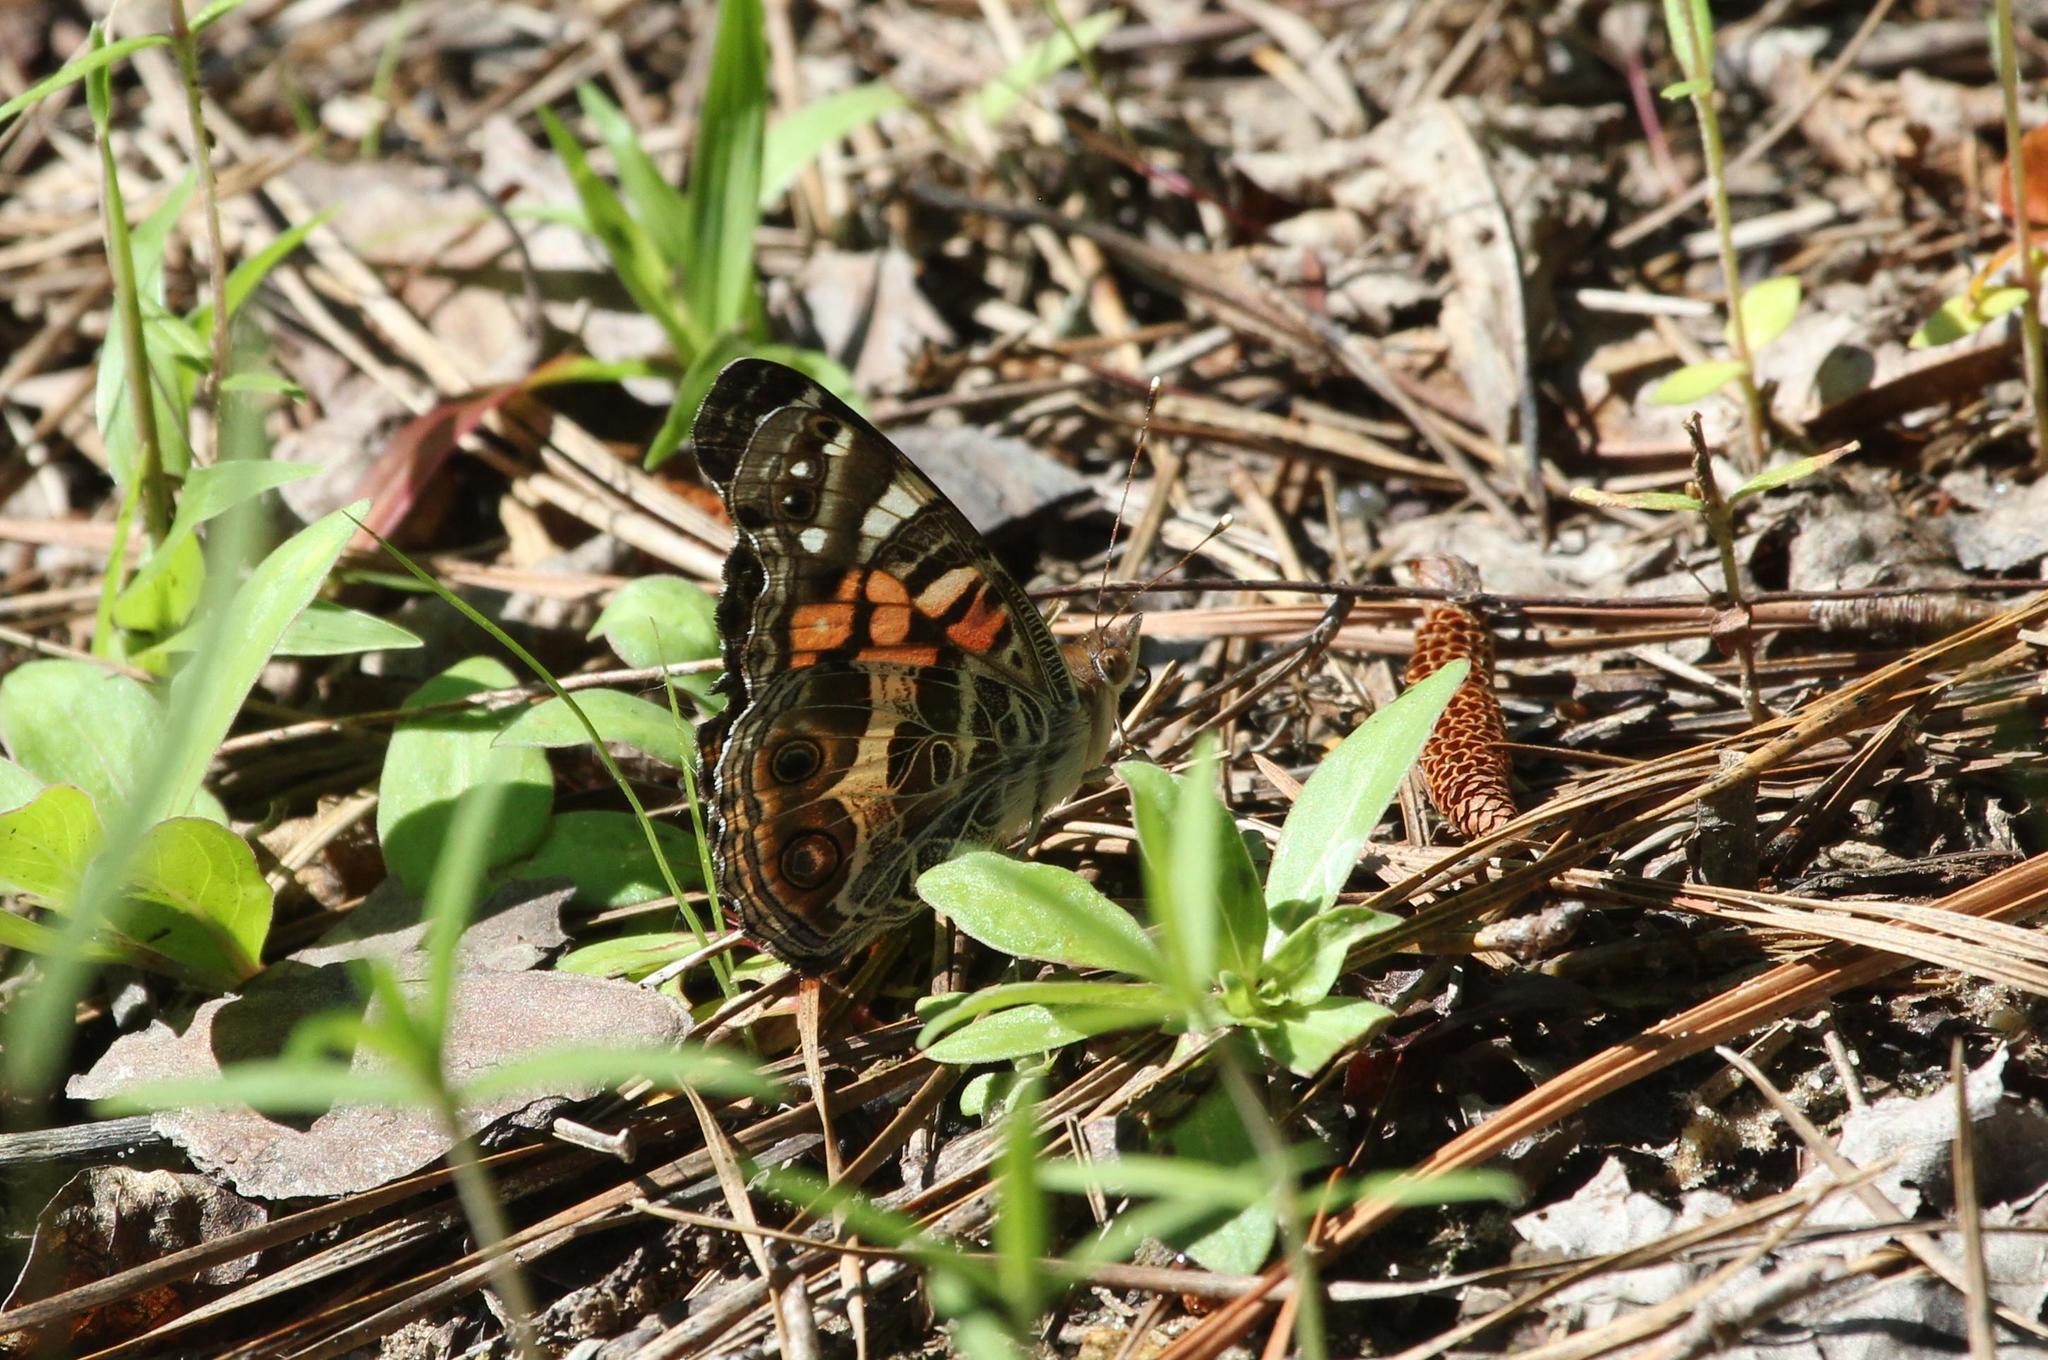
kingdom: Animalia
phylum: Arthropoda
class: Insecta
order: Lepidoptera
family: Nymphalidae
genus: Vanessa
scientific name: Vanessa virginiensis
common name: American lady
